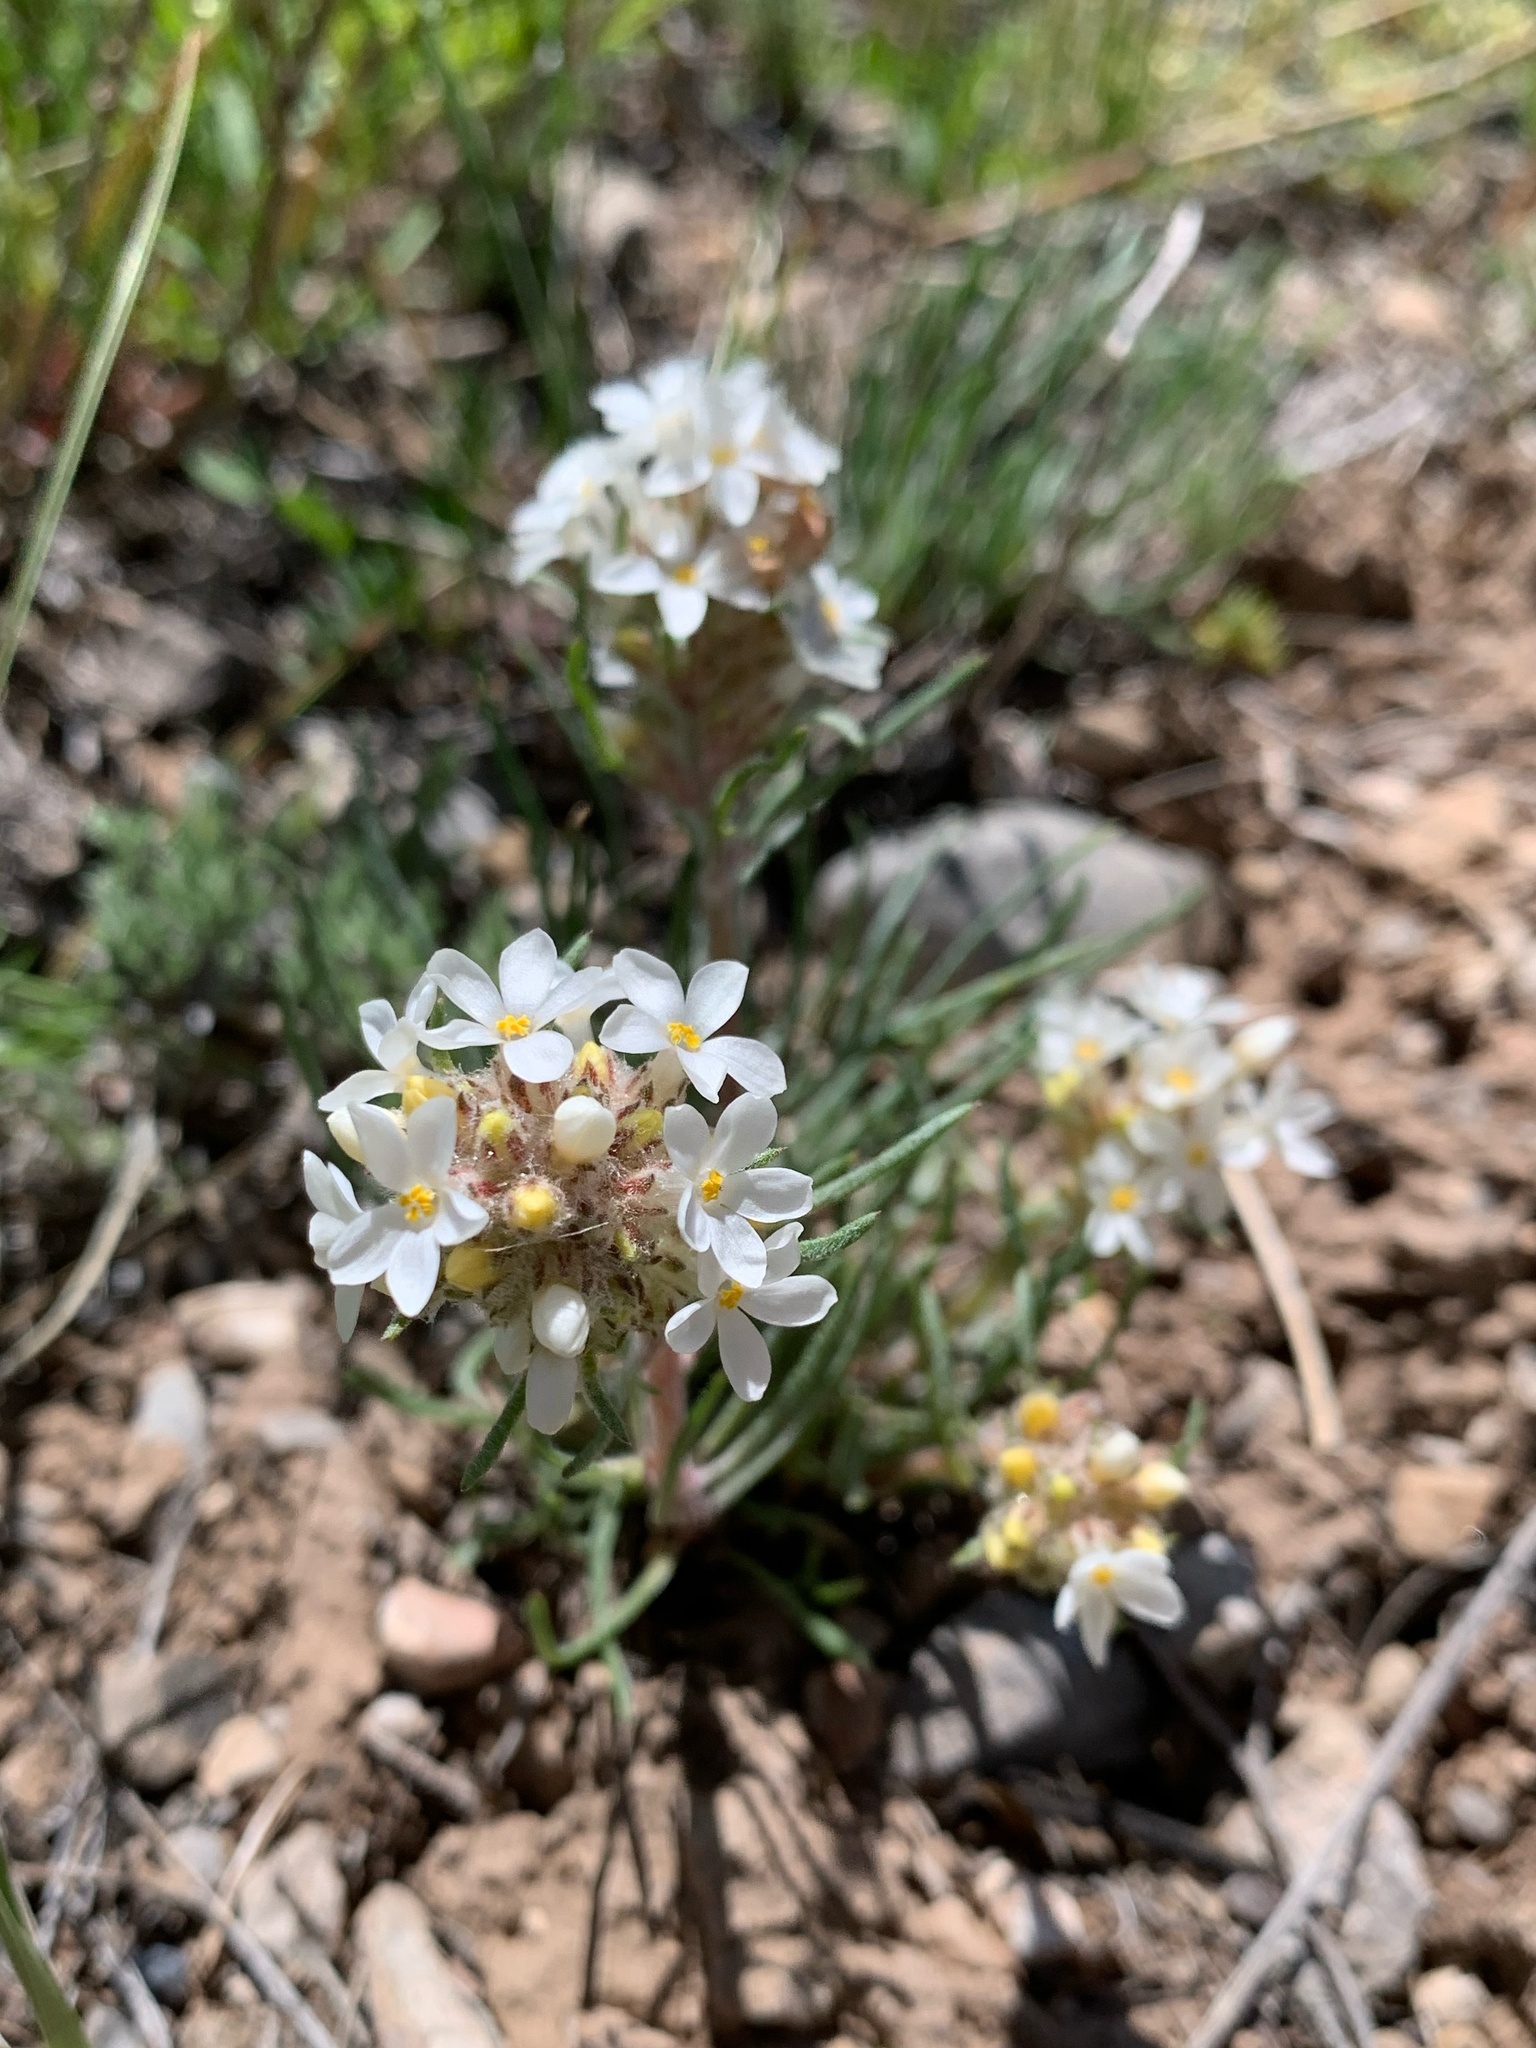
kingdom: Plantae
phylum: Tracheophyta
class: Magnoliopsida
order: Ericales
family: Polemoniaceae
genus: Ipomopsis
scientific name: Ipomopsis spicata
